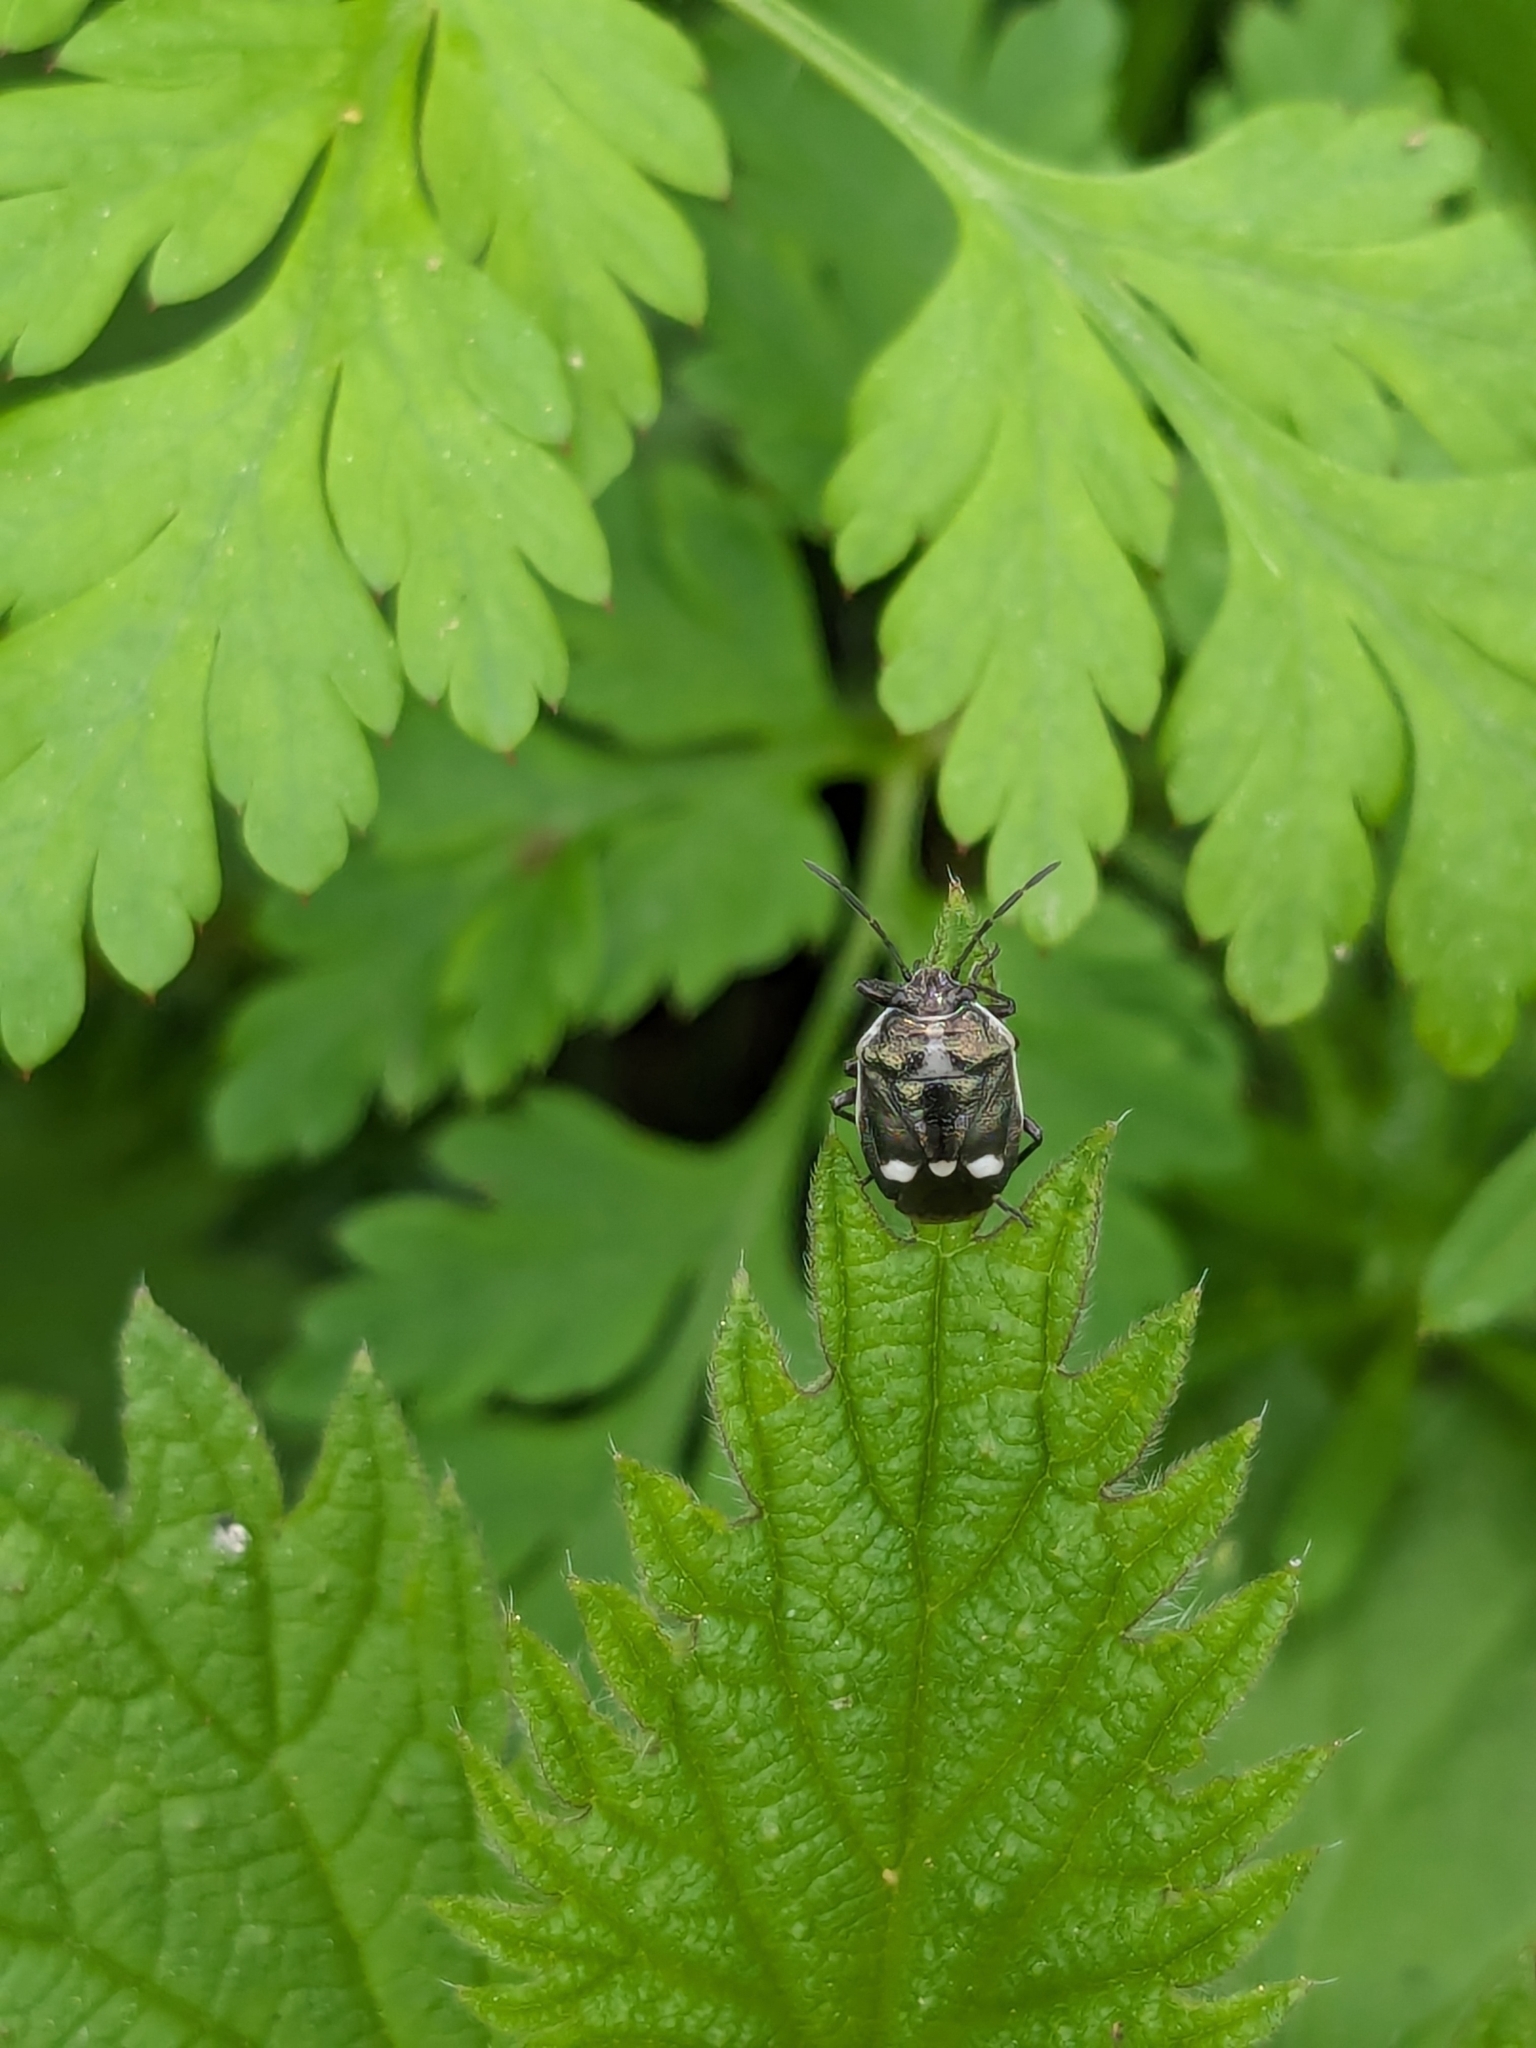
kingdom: Animalia
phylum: Arthropoda
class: Insecta
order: Hemiptera
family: Pentatomidae
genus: Eurydema
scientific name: Eurydema oleracea
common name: Cabbage bug
